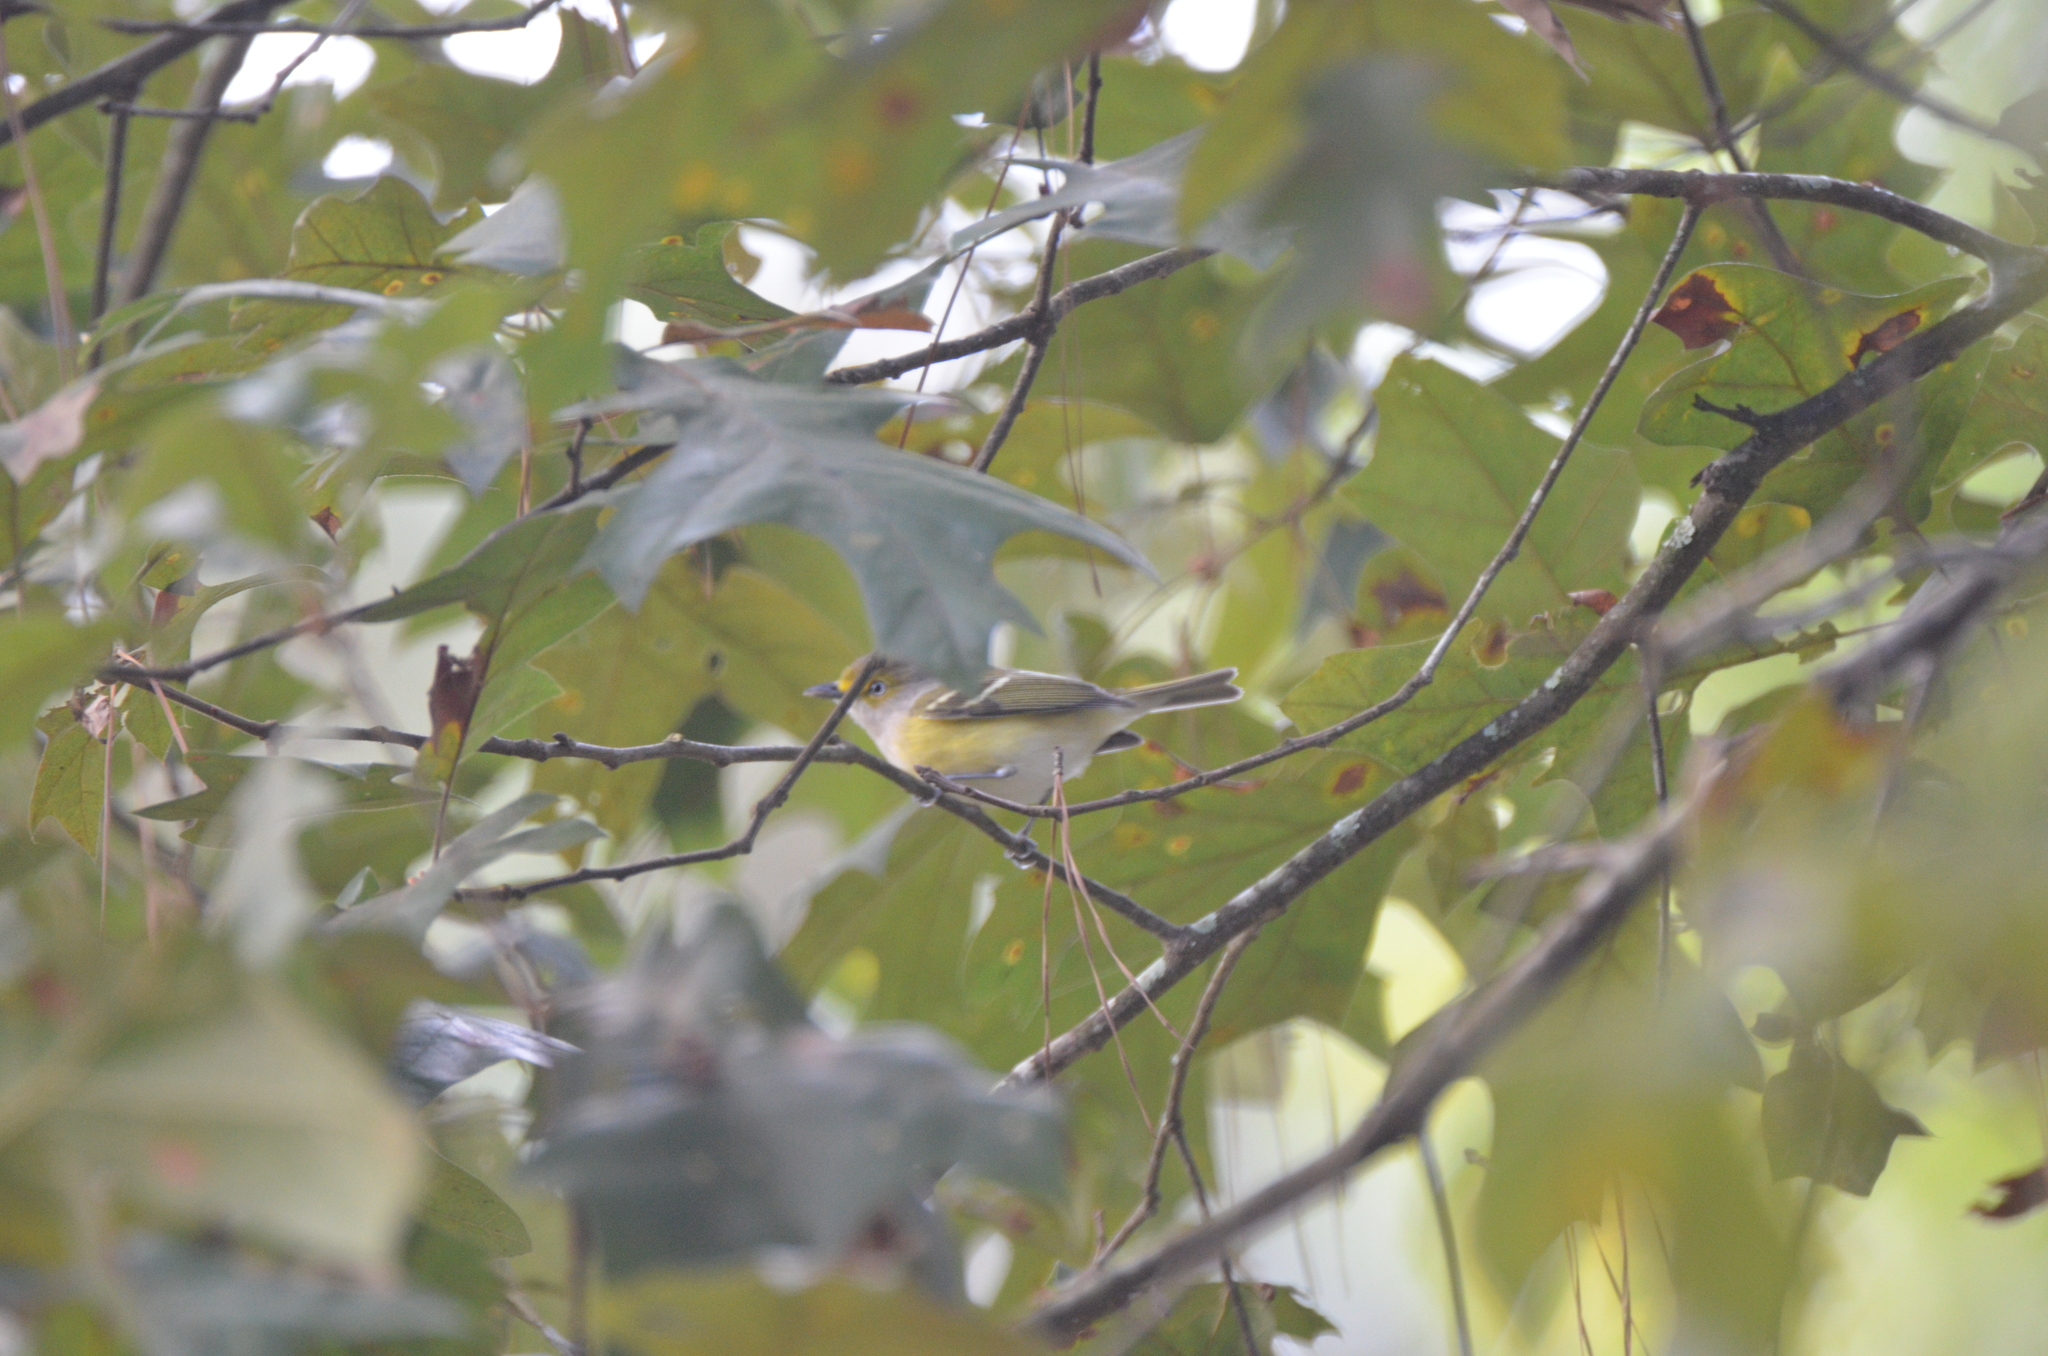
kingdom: Animalia
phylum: Chordata
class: Aves
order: Passeriformes
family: Vireonidae
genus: Vireo
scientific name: Vireo griseus
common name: White-eyed vireo
